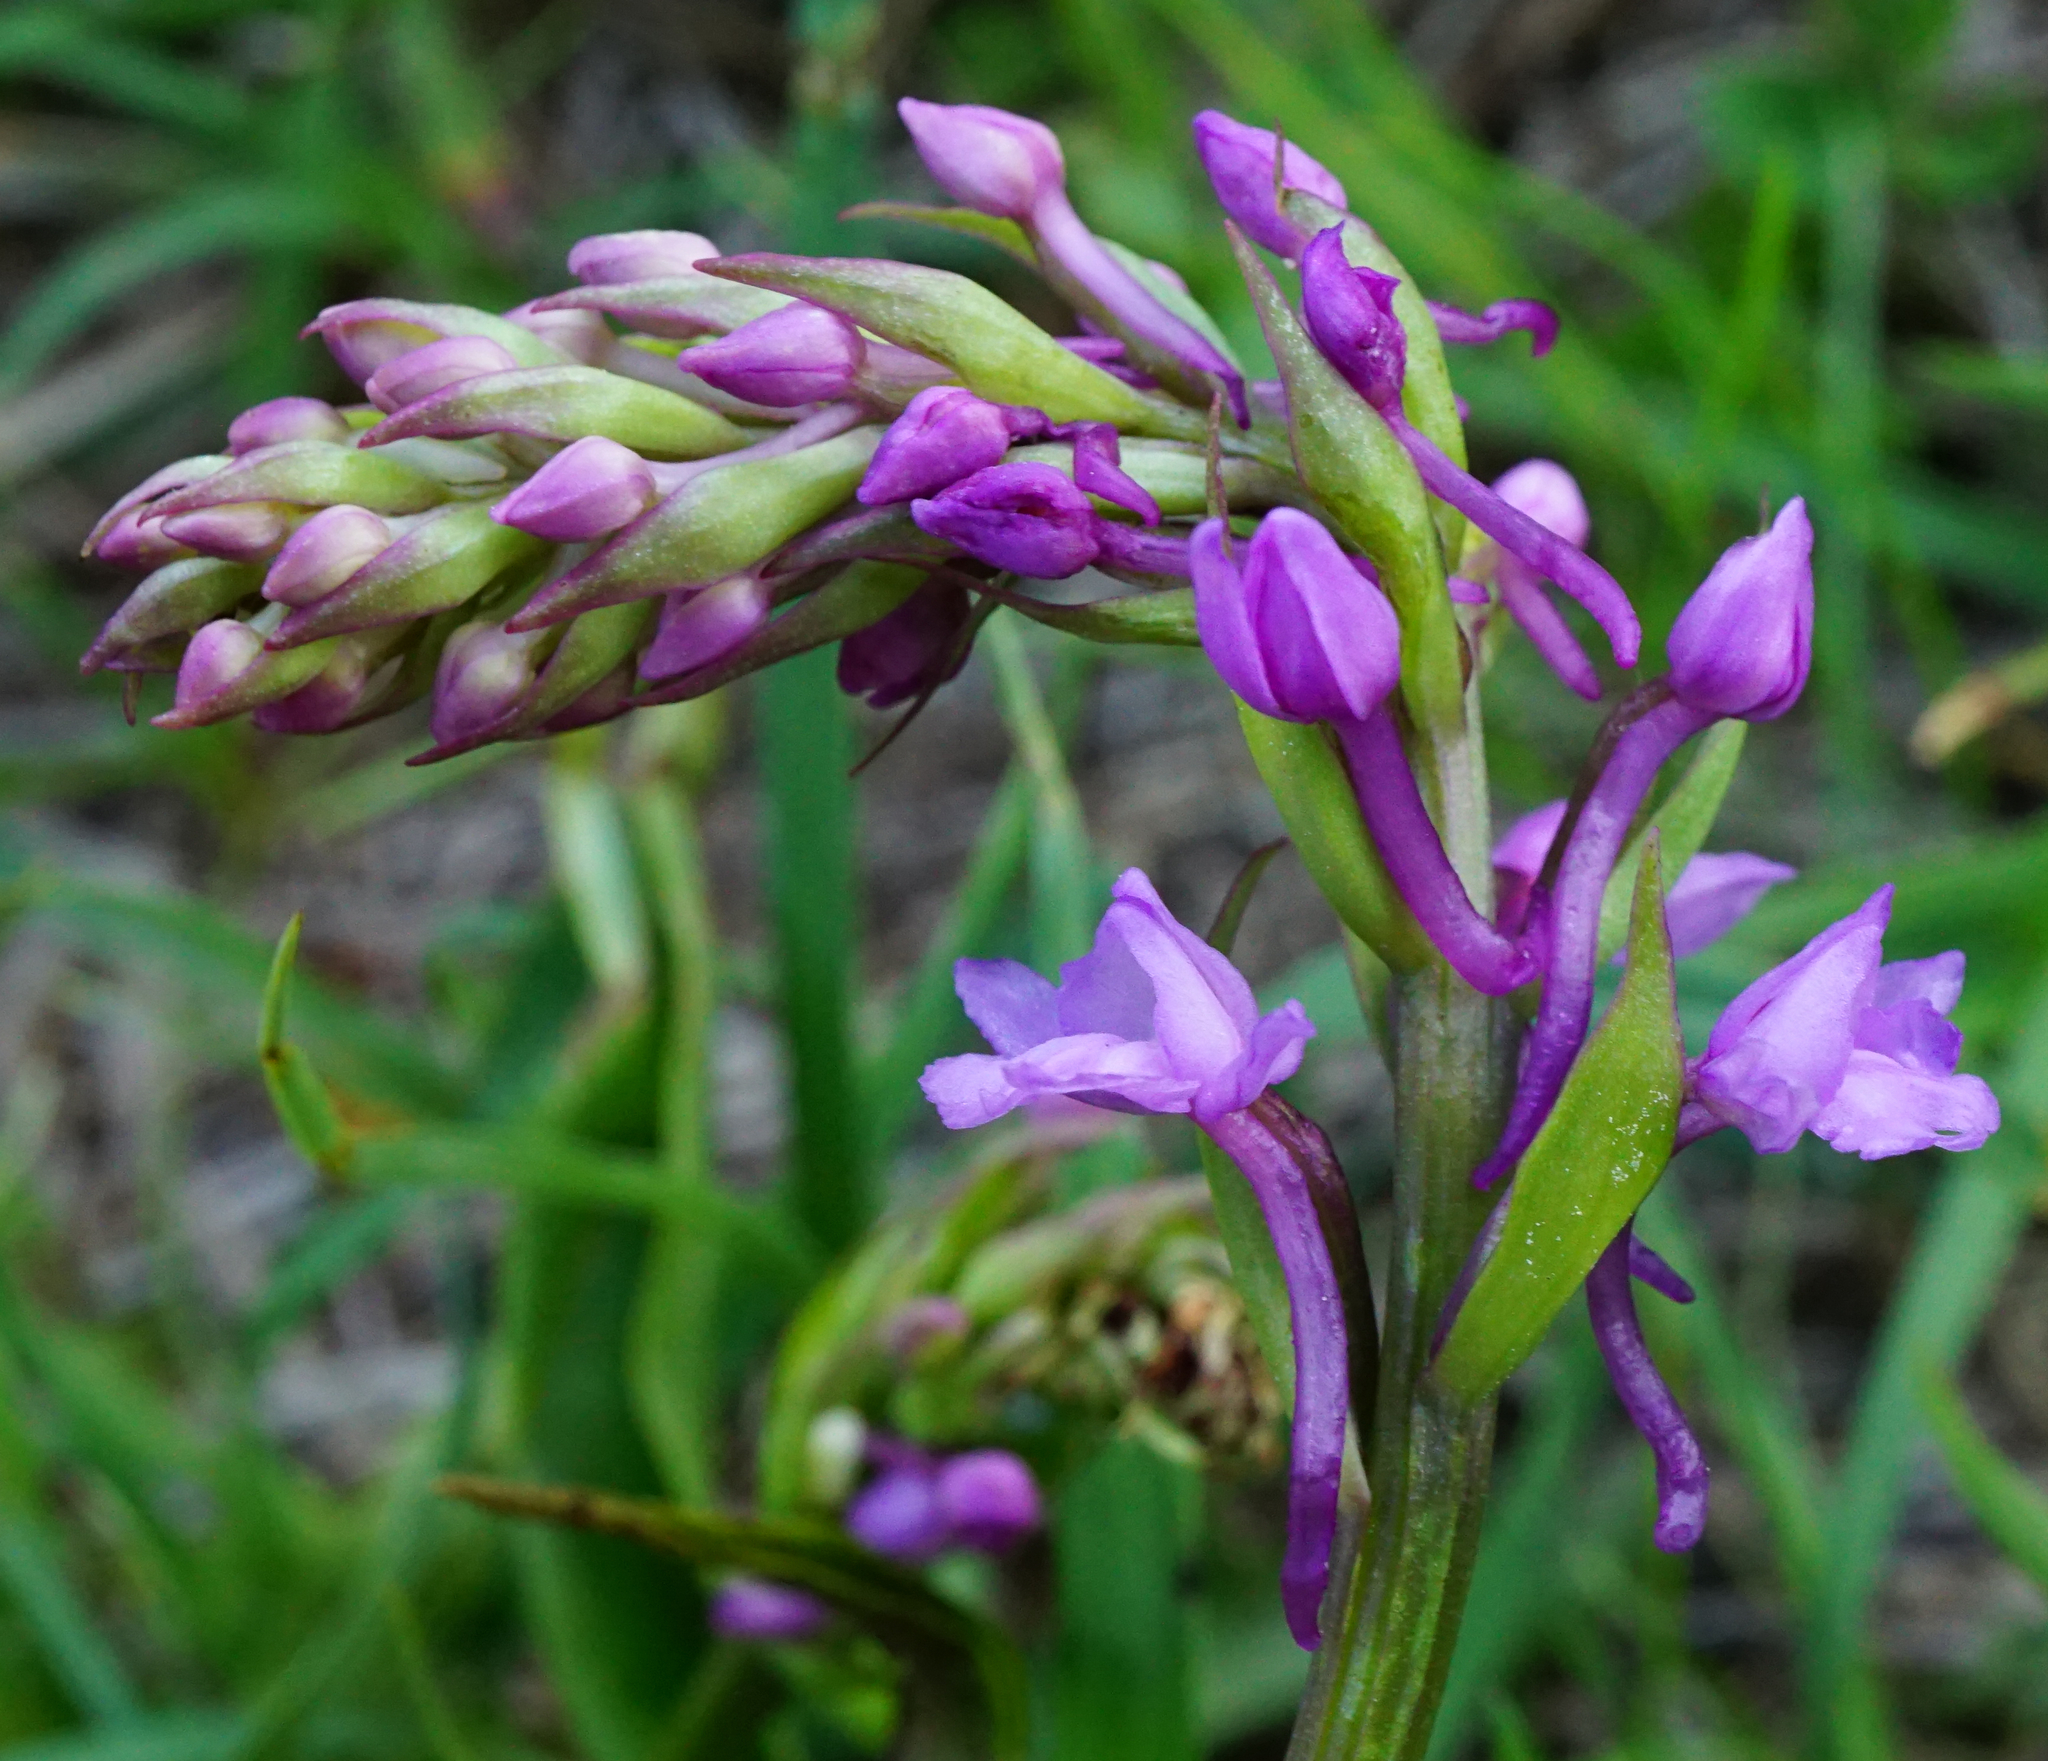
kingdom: Plantae
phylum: Tracheophyta
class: Liliopsida
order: Asparagales
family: Orchidaceae
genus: Gymnadenia
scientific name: Gymnadenia conopsea
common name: Fragrant orchid
